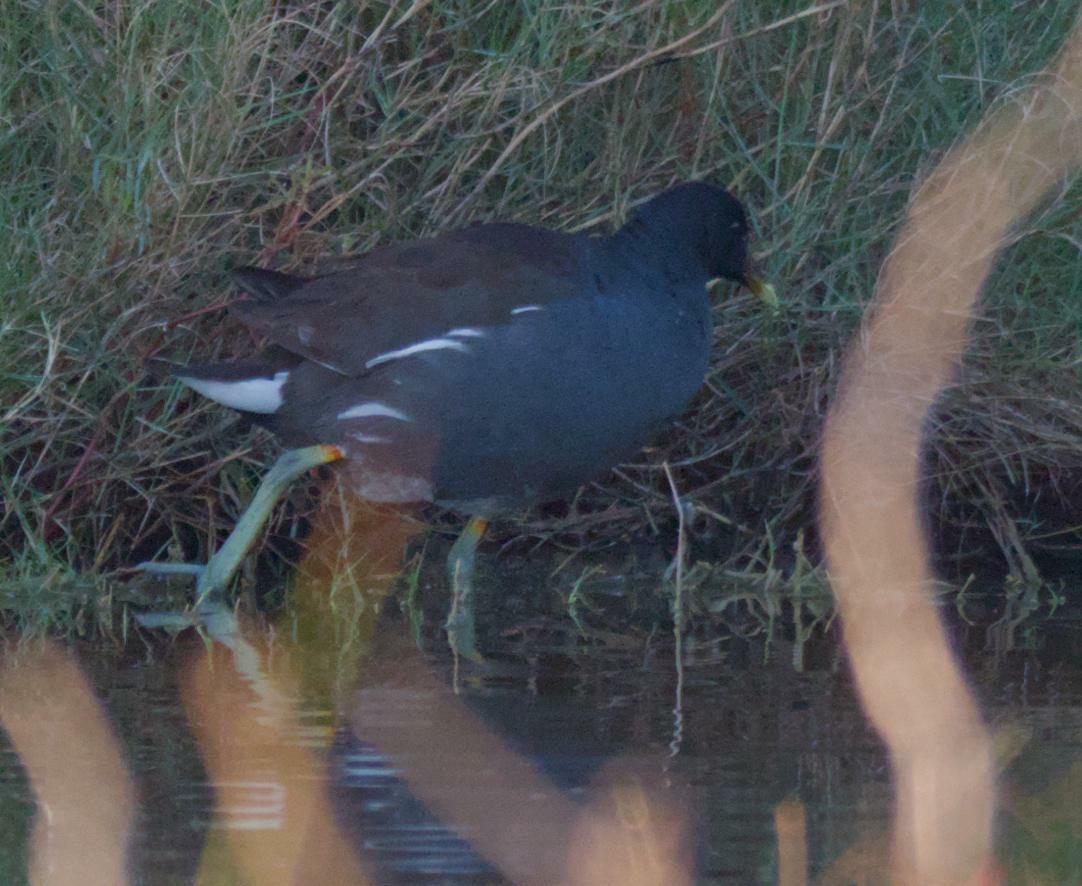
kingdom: Animalia
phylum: Chordata
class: Aves
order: Gruiformes
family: Rallidae
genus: Gallinula
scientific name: Gallinula chloropus
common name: Common moorhen
